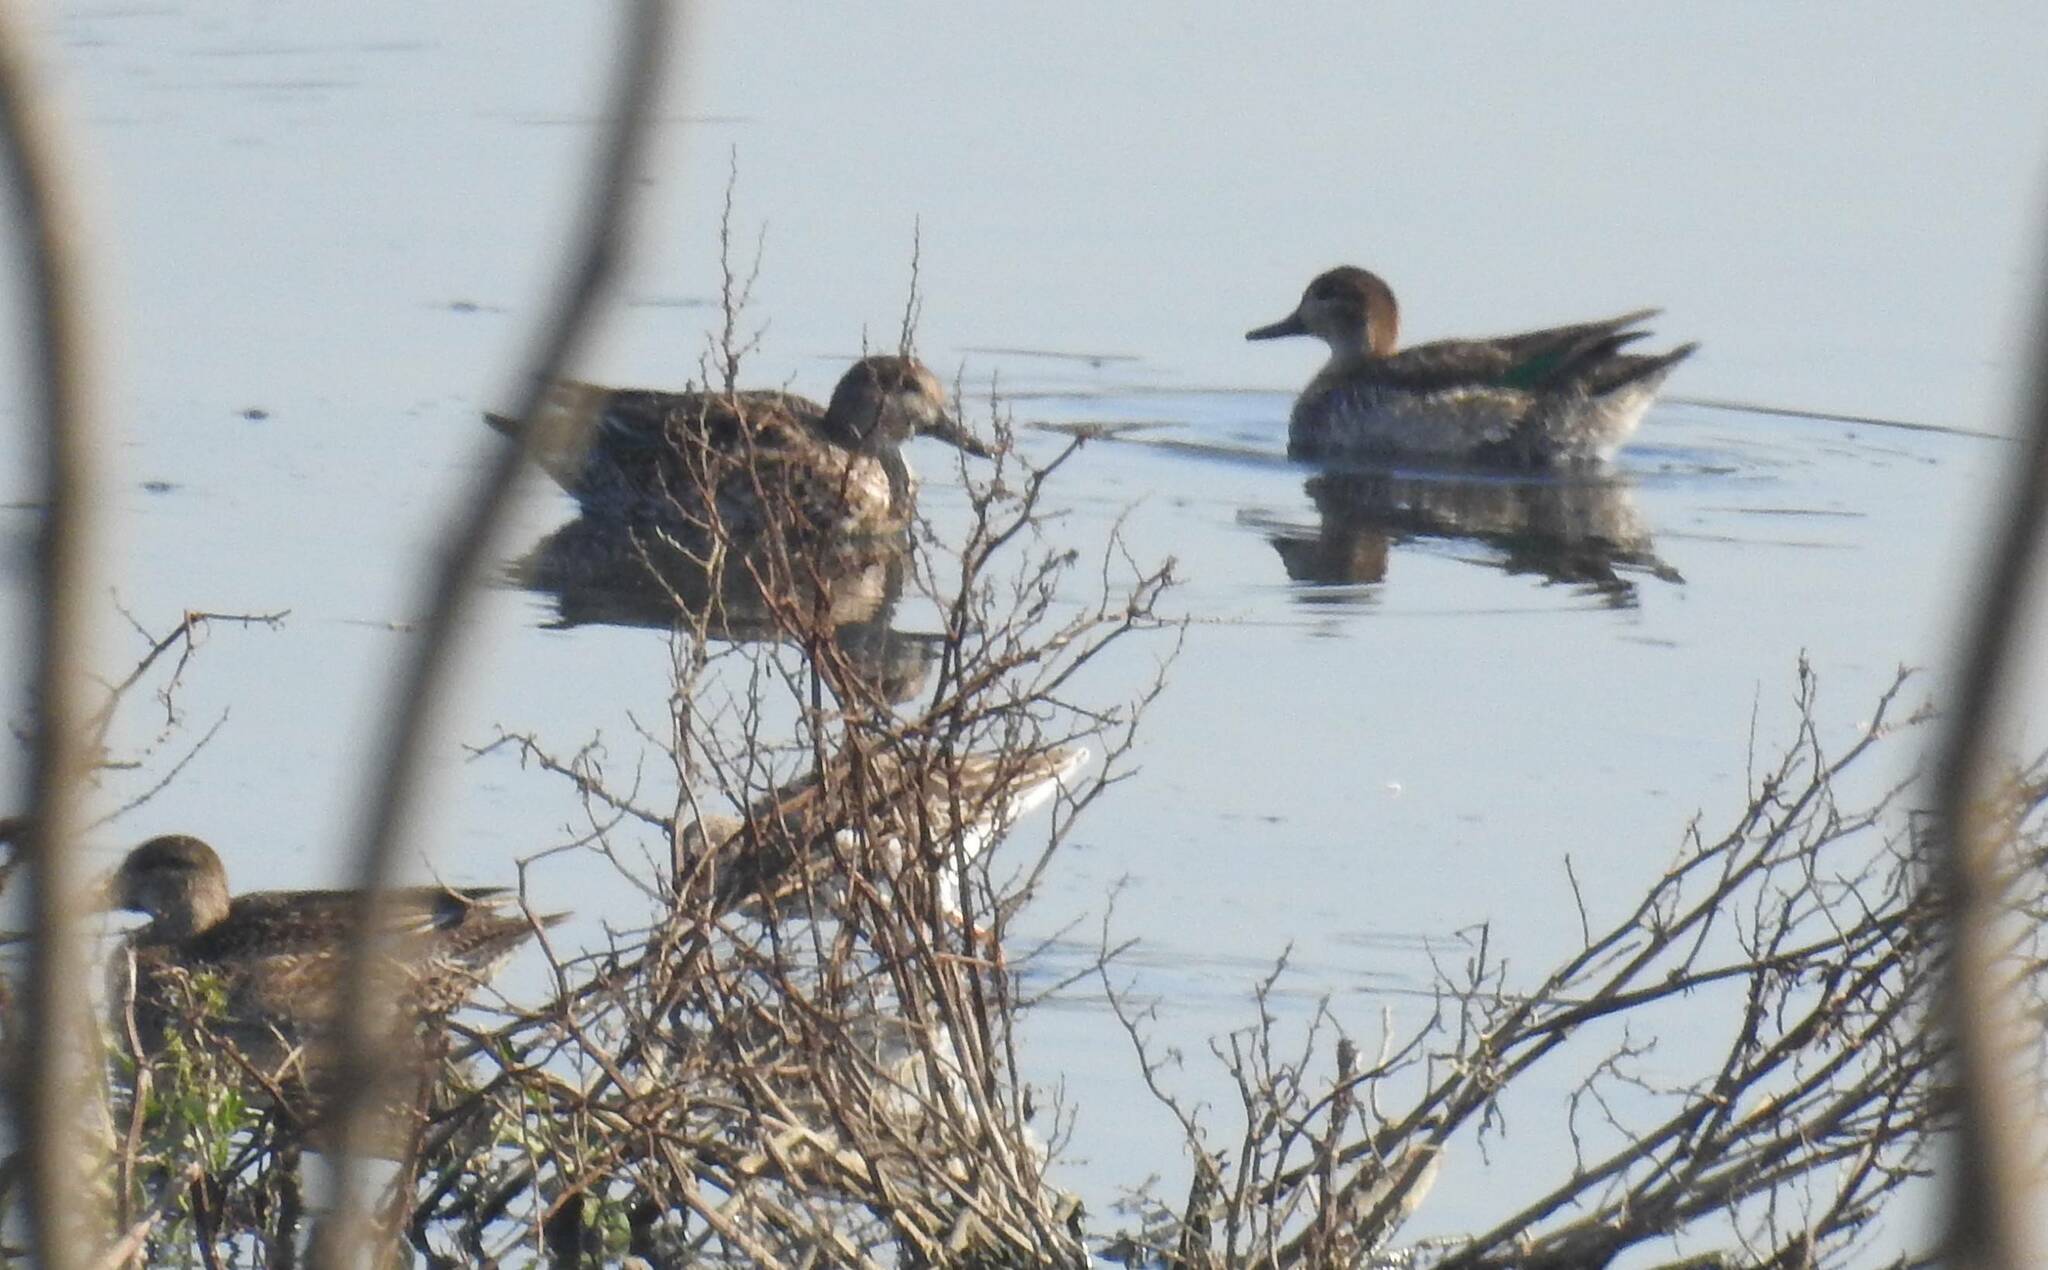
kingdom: Animalia
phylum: Chordata
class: Aves
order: Anseriformes
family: Anatidae
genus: Anas
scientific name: Anas crecca
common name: Eurasian teal
